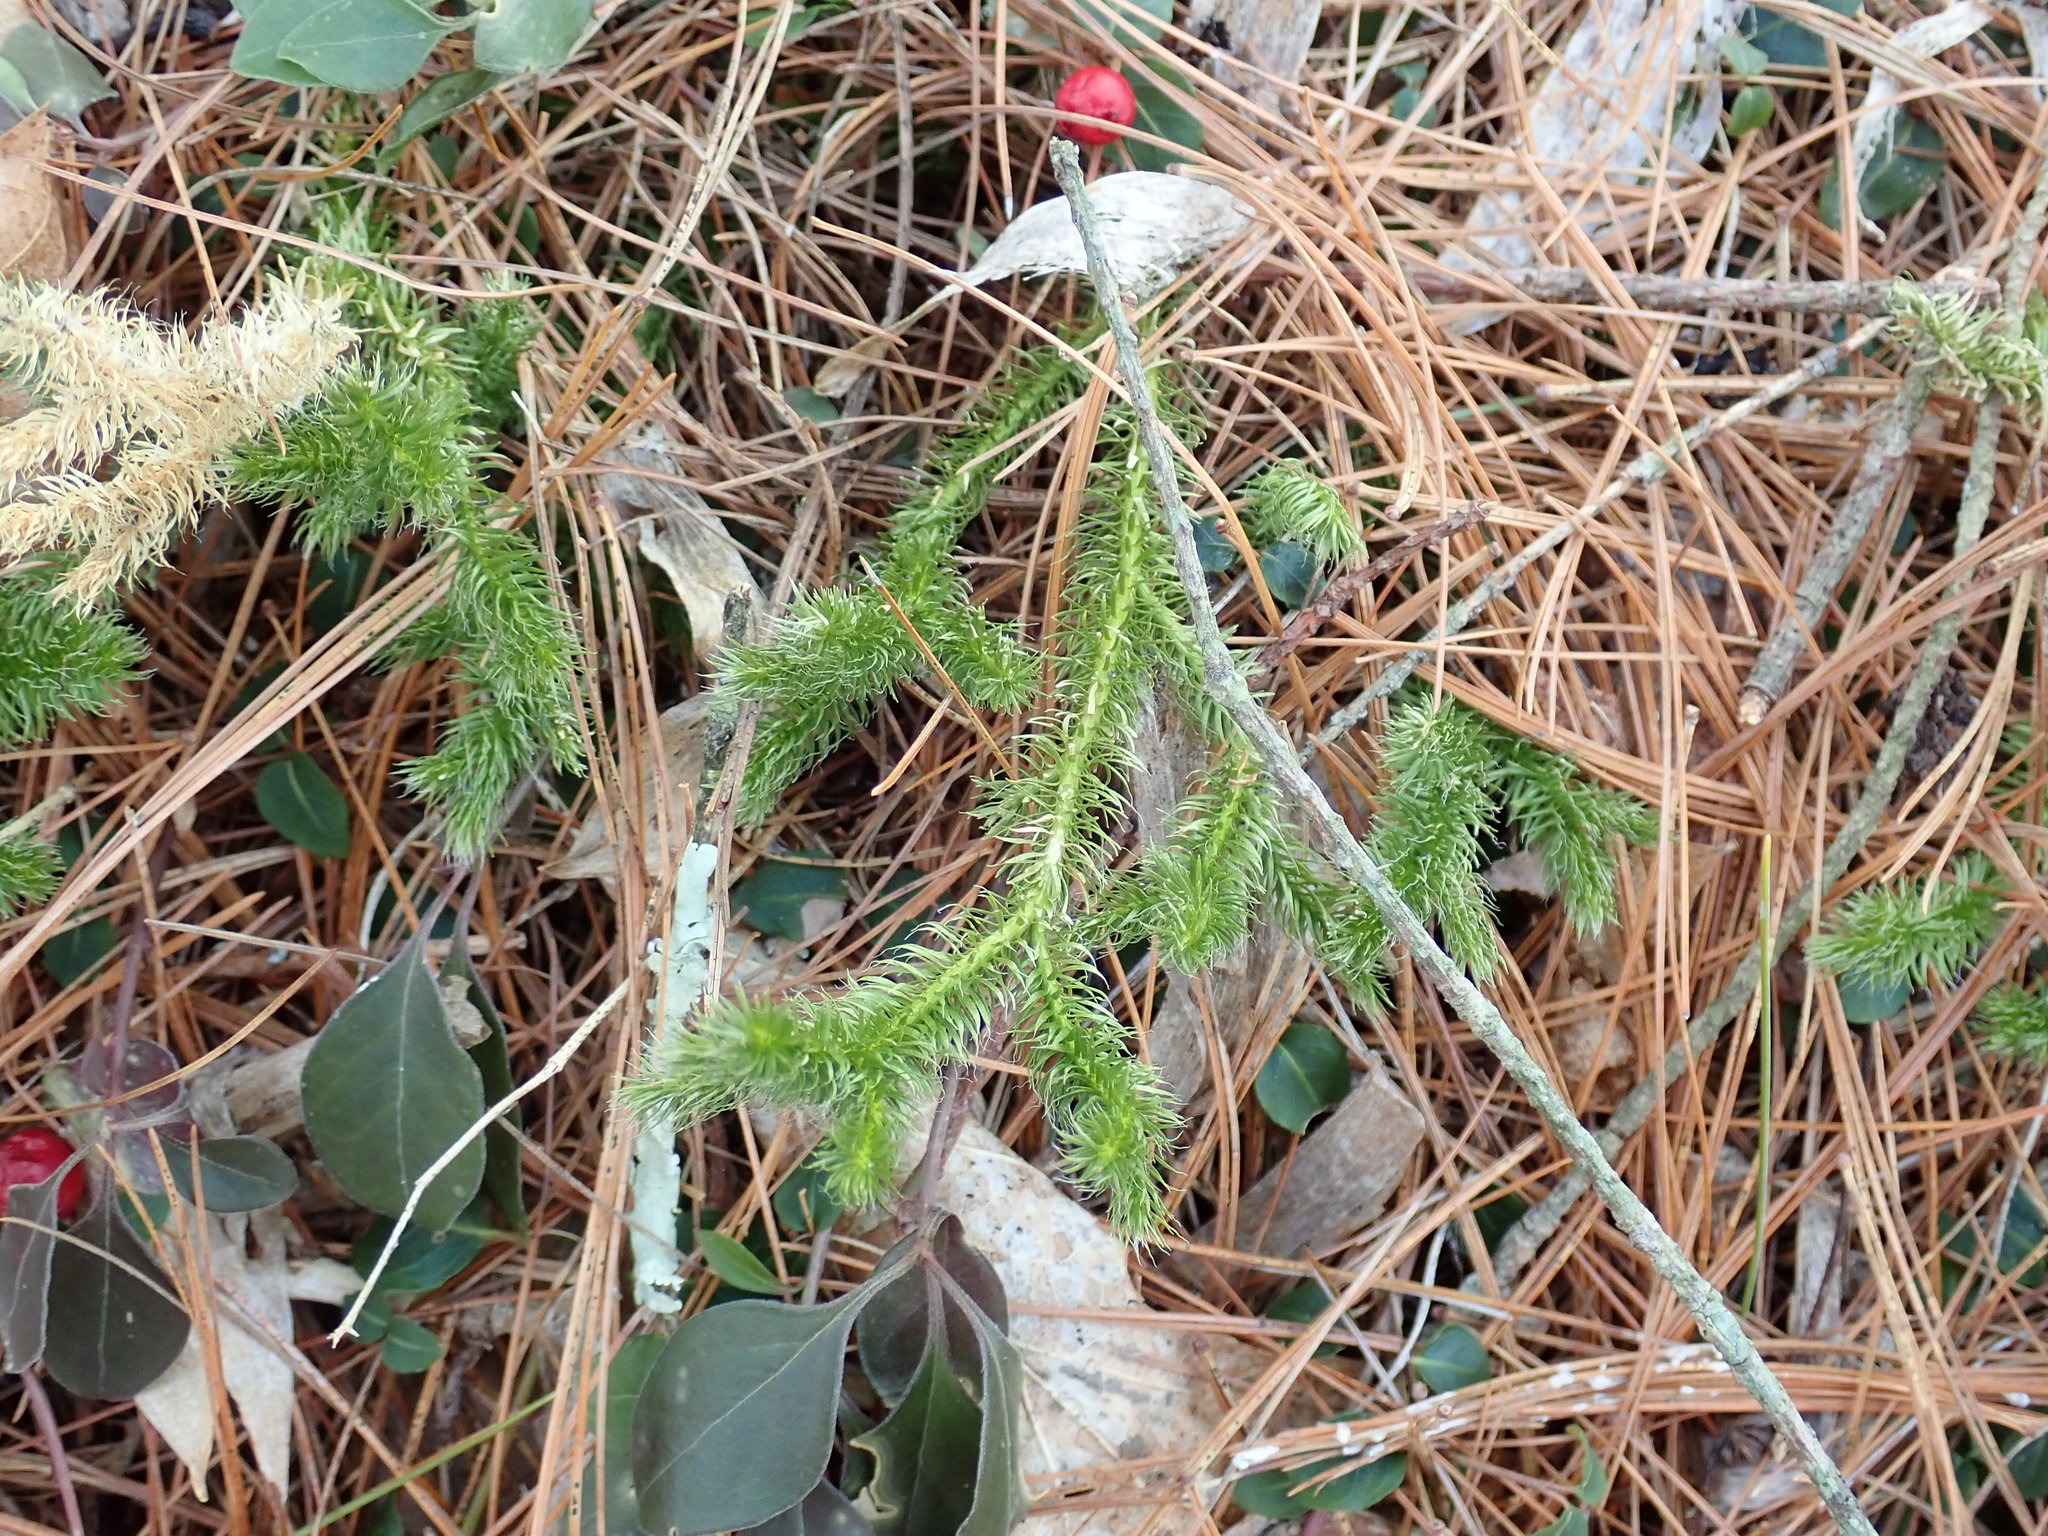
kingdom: Plantae
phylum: Tracheophyta
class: Lycopodiopsida
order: Lycopodiales
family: Lycopodiaceae
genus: Lycopodium
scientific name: Lycopodium clavatum
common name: Stag's-horn clubmoss
